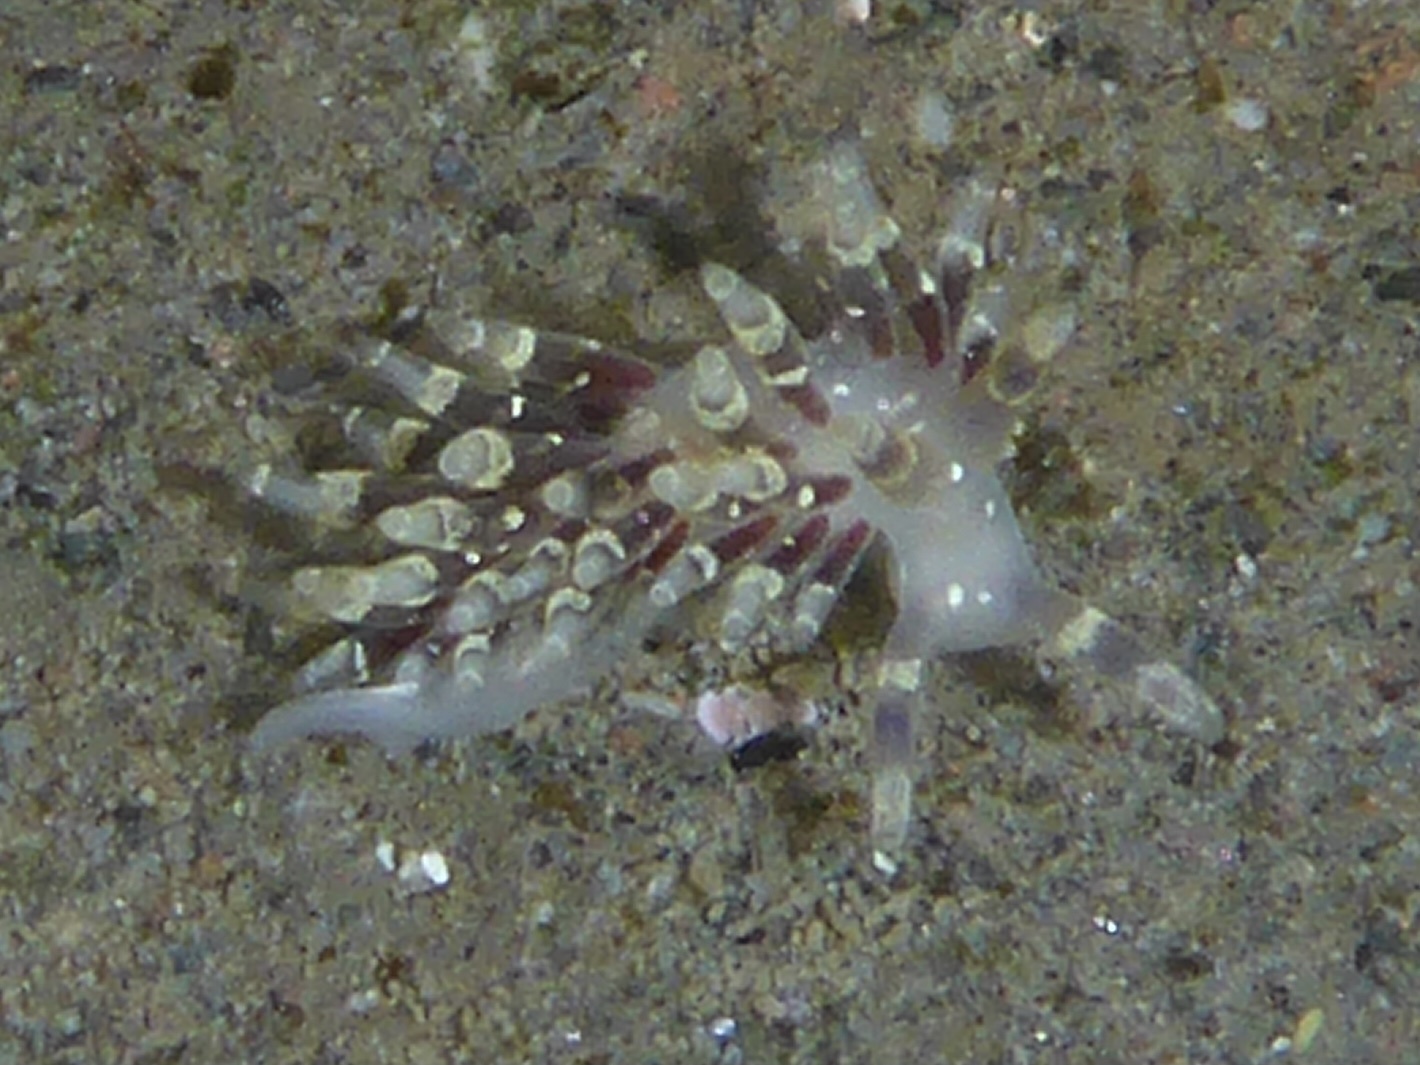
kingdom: Animalia
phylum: Mollusca
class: Gastropoda
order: Nudibranchia
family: Abronicidae
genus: Abronica
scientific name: Abronica abronia
